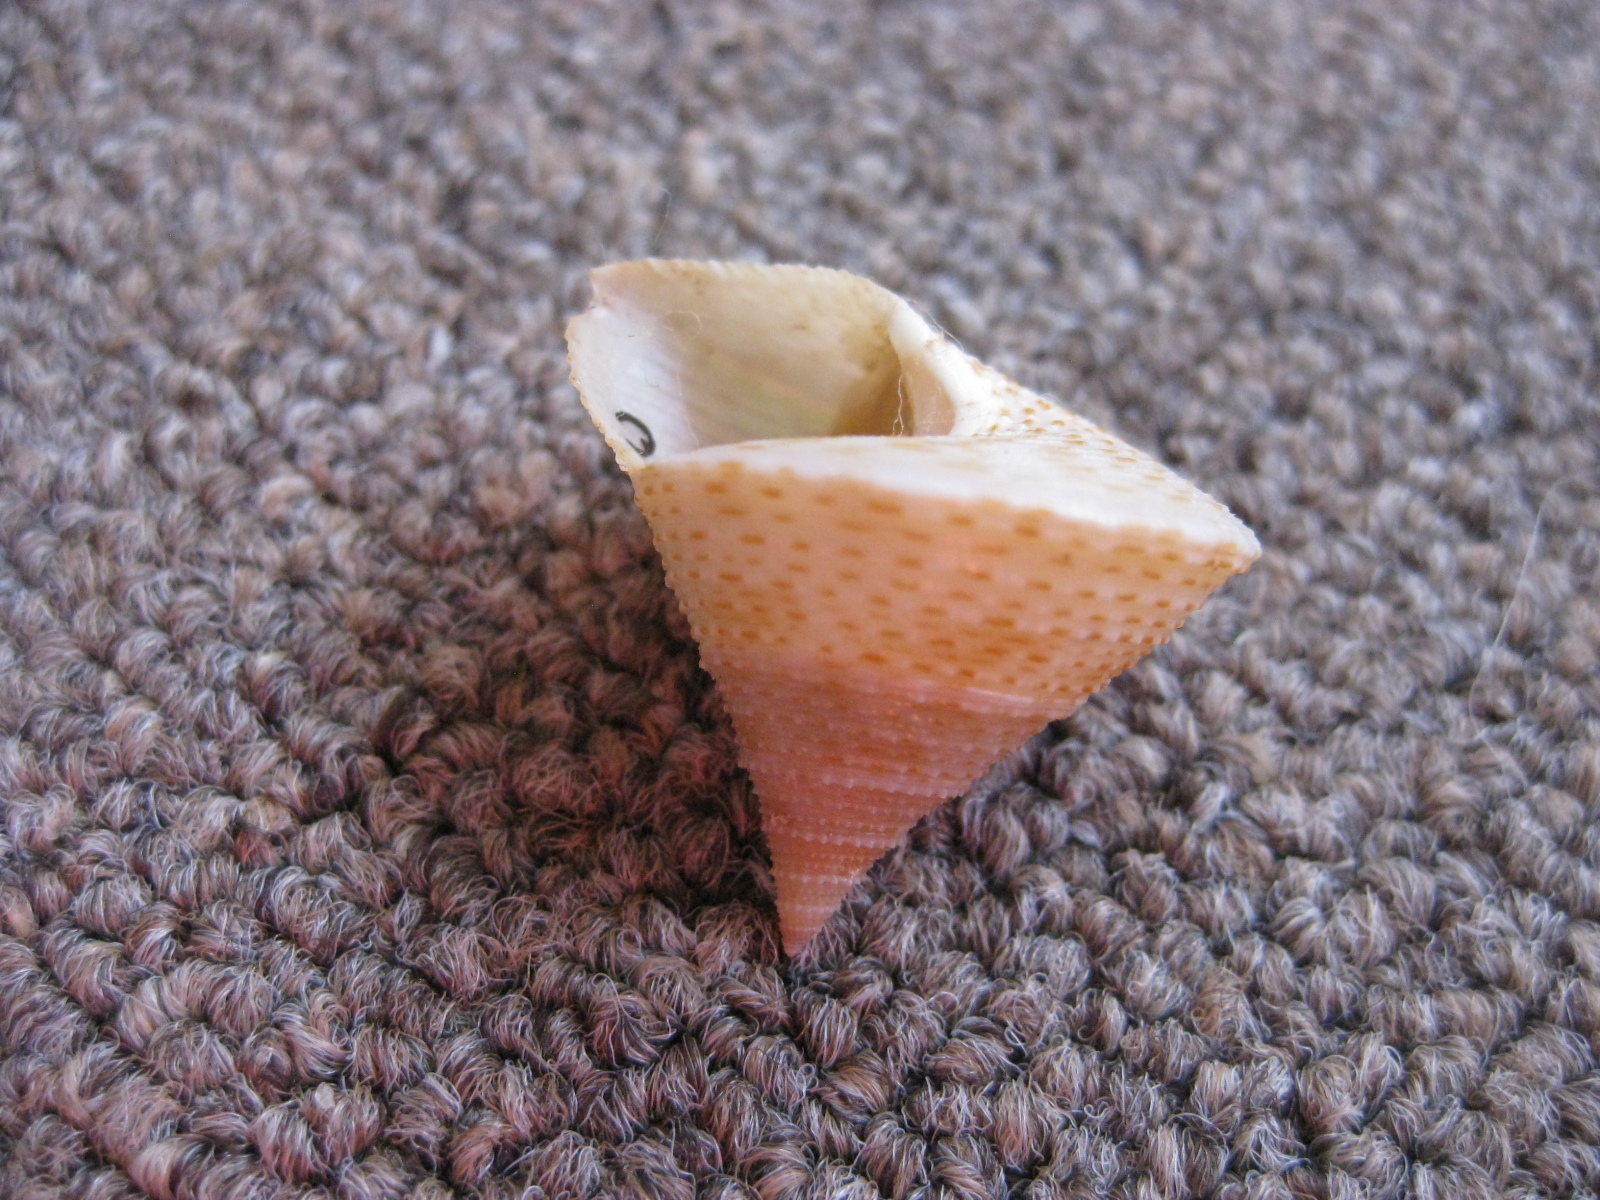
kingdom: Animalia
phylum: Mollusca
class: Gastropoda
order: Trochida
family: Calliostomatidae
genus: Maurea
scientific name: Maurea selecta
